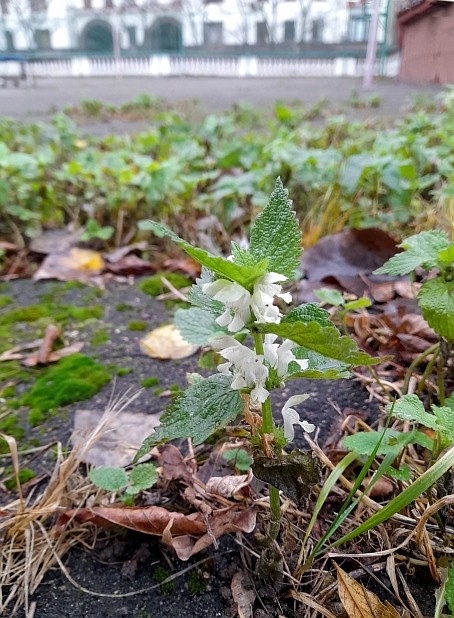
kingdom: Plantae
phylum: Tracheophyta
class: Magnoliopsida
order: Lamiales
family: Lamiaceae
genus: Lamium
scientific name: Lamium album
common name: White dead-nettle
